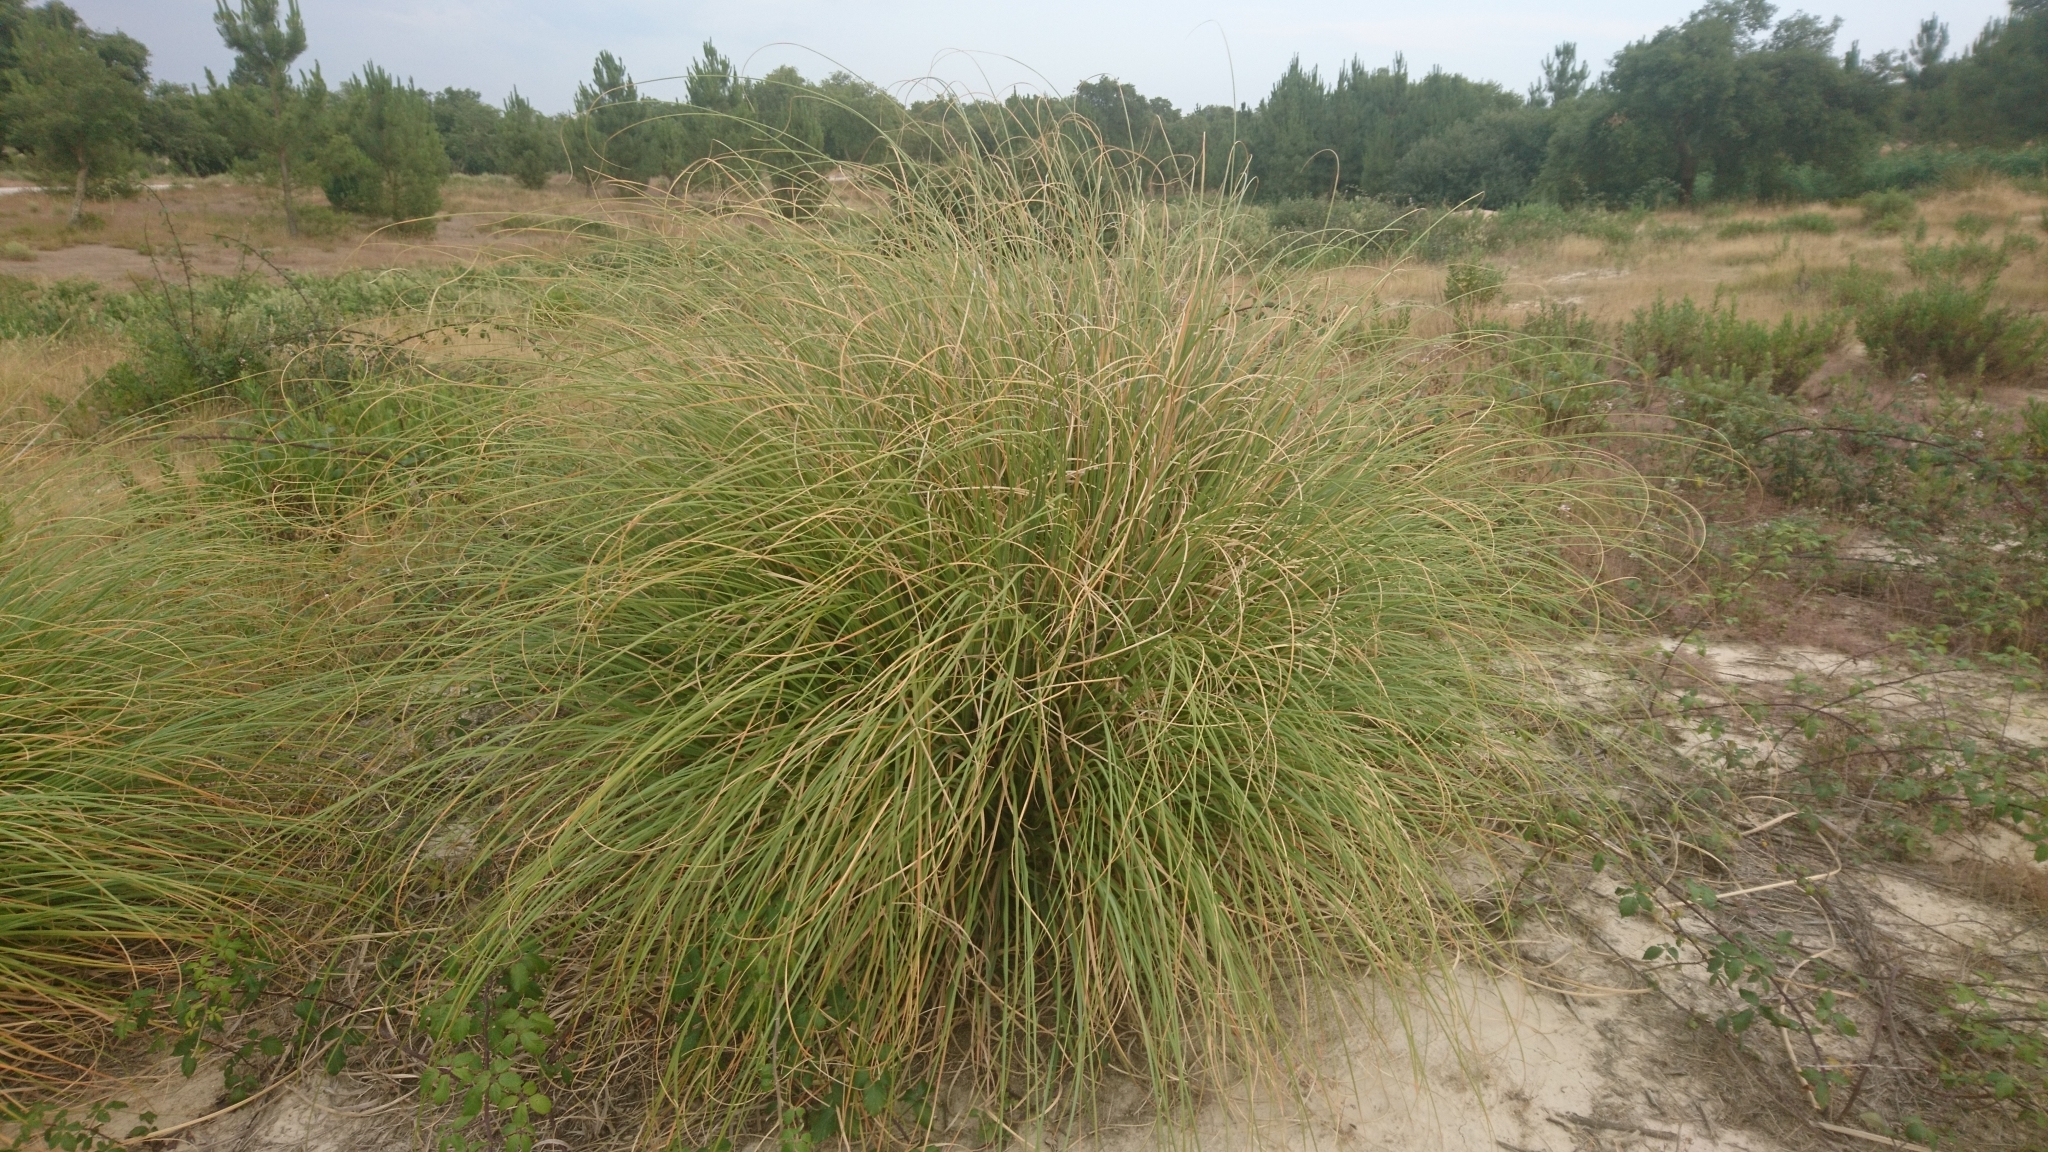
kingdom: Plantae
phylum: Tracheophyta
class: Liliopsida
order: Poales
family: Poaceae
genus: Cortaderia
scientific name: Cortaderia selloana
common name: Uruguayan pampas grass
